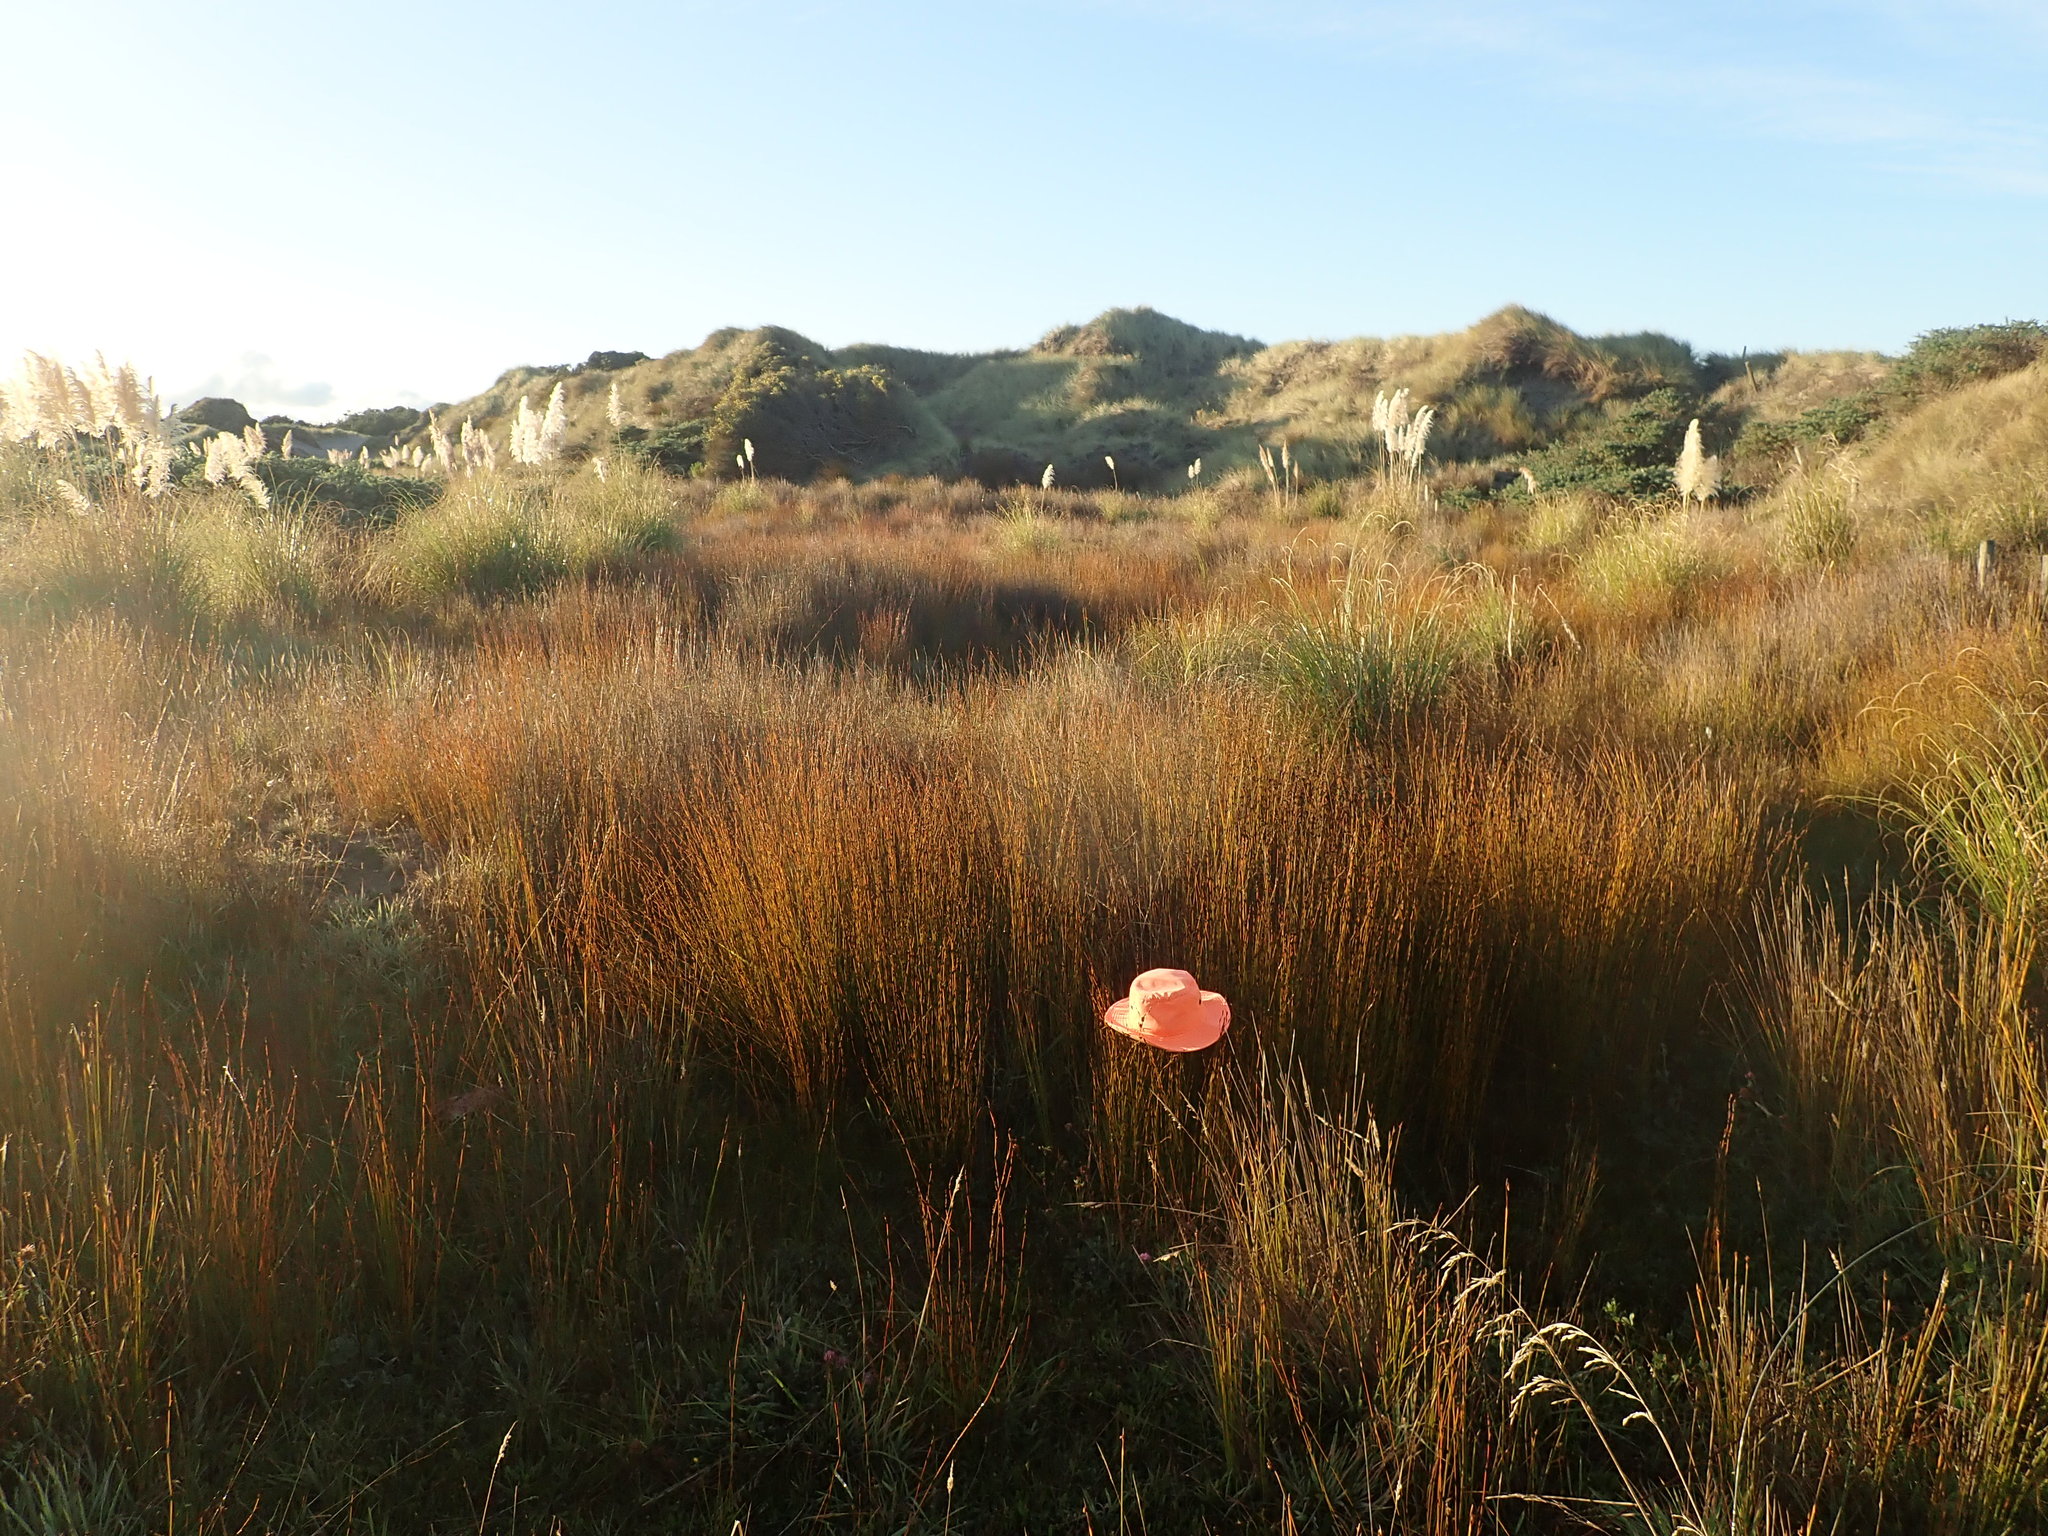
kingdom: Plantae
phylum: Tracheophyta
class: Liliopsida
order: Poales
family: Restionaceae
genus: Apodasmia
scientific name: Apodasmia similis
